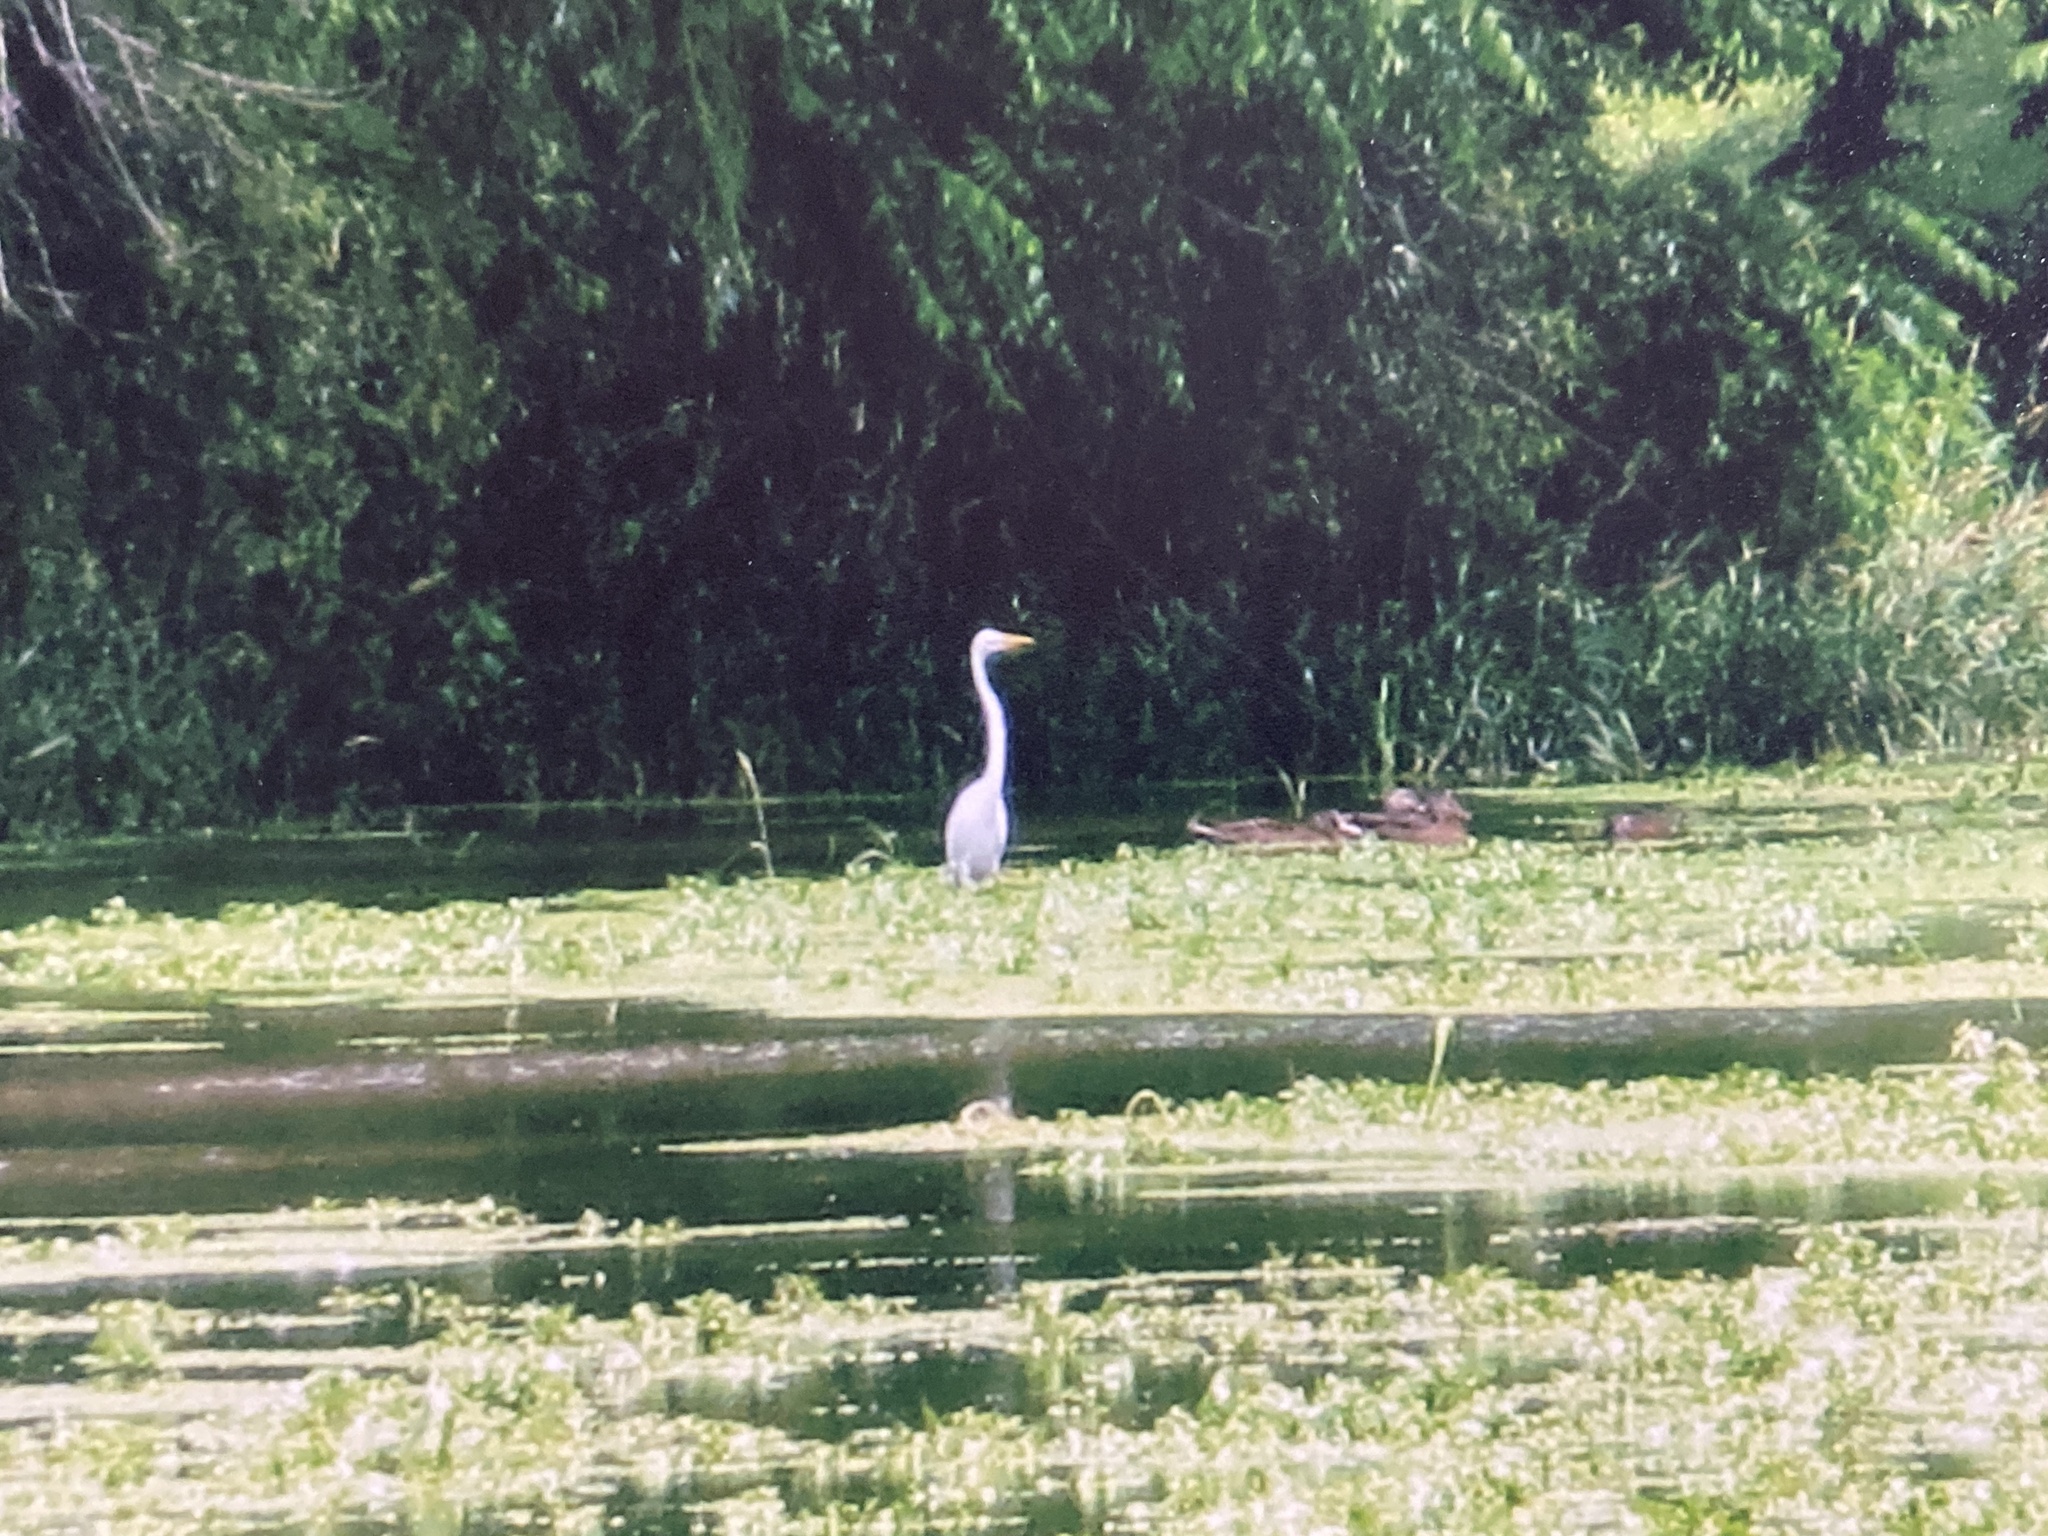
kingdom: Animalia
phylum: Chordata
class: Aves
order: Pelecaniformes
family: Ardeidae
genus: Ardea
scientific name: Ardea alba
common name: Great egret
